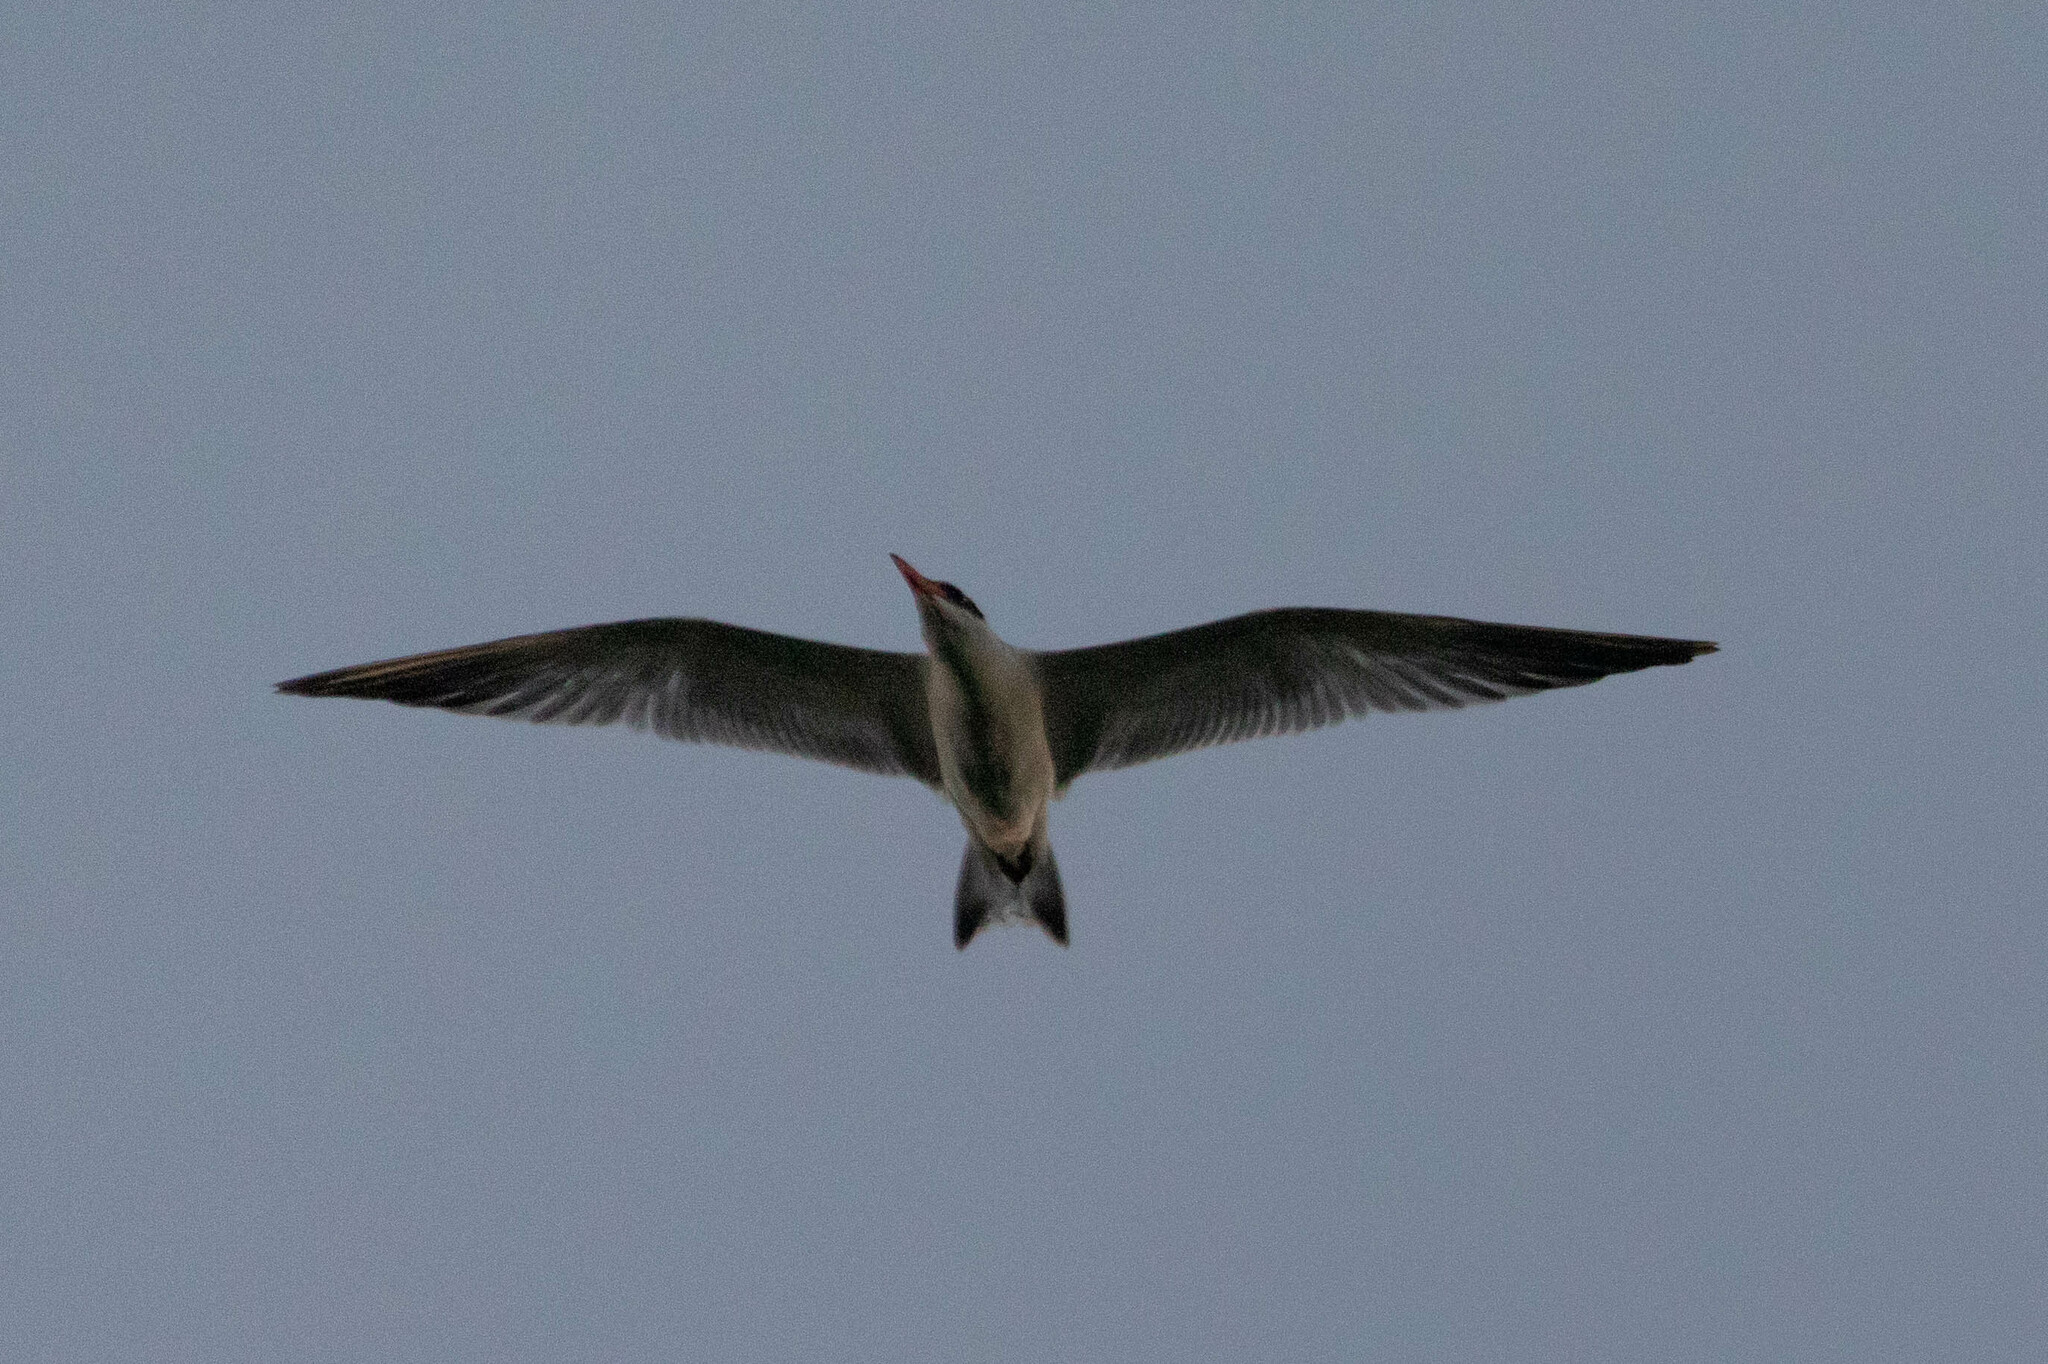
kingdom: Animalia
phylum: Chordata
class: Aves
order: Charadriiformes
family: Laridae
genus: Hydroprogne
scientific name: Hydroprogne caspia
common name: Caspian tern
